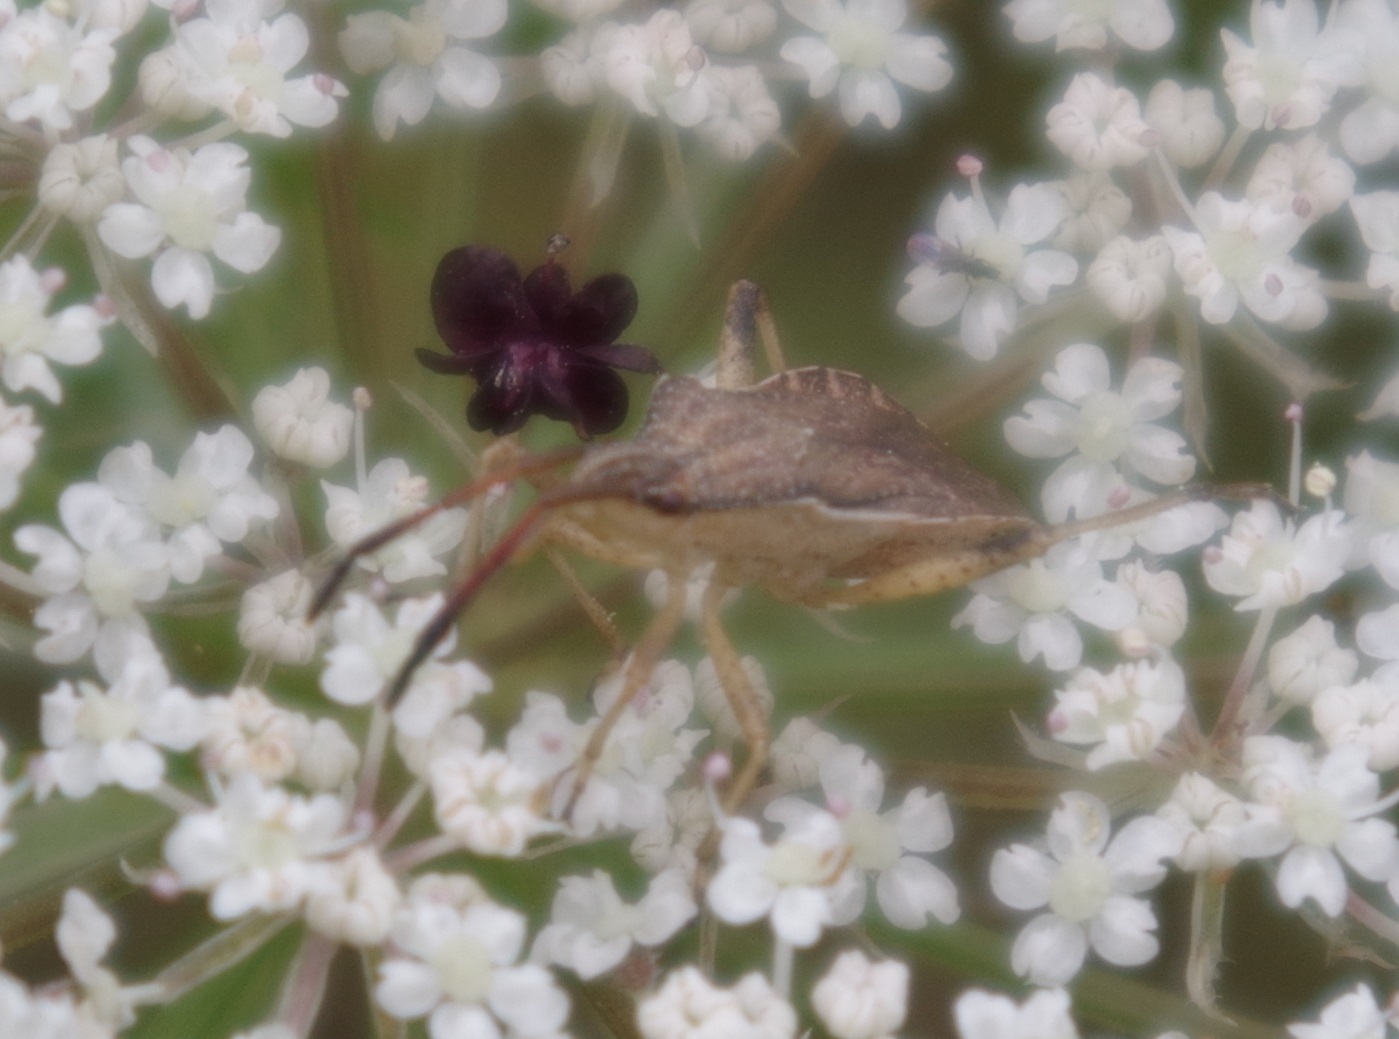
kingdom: Animalia
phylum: Arthropoda
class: Insecta
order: Hemiptera
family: Coreidae
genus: Ceraleptus
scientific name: Ceraleptus lividus
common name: Slender-horned leatherbug
